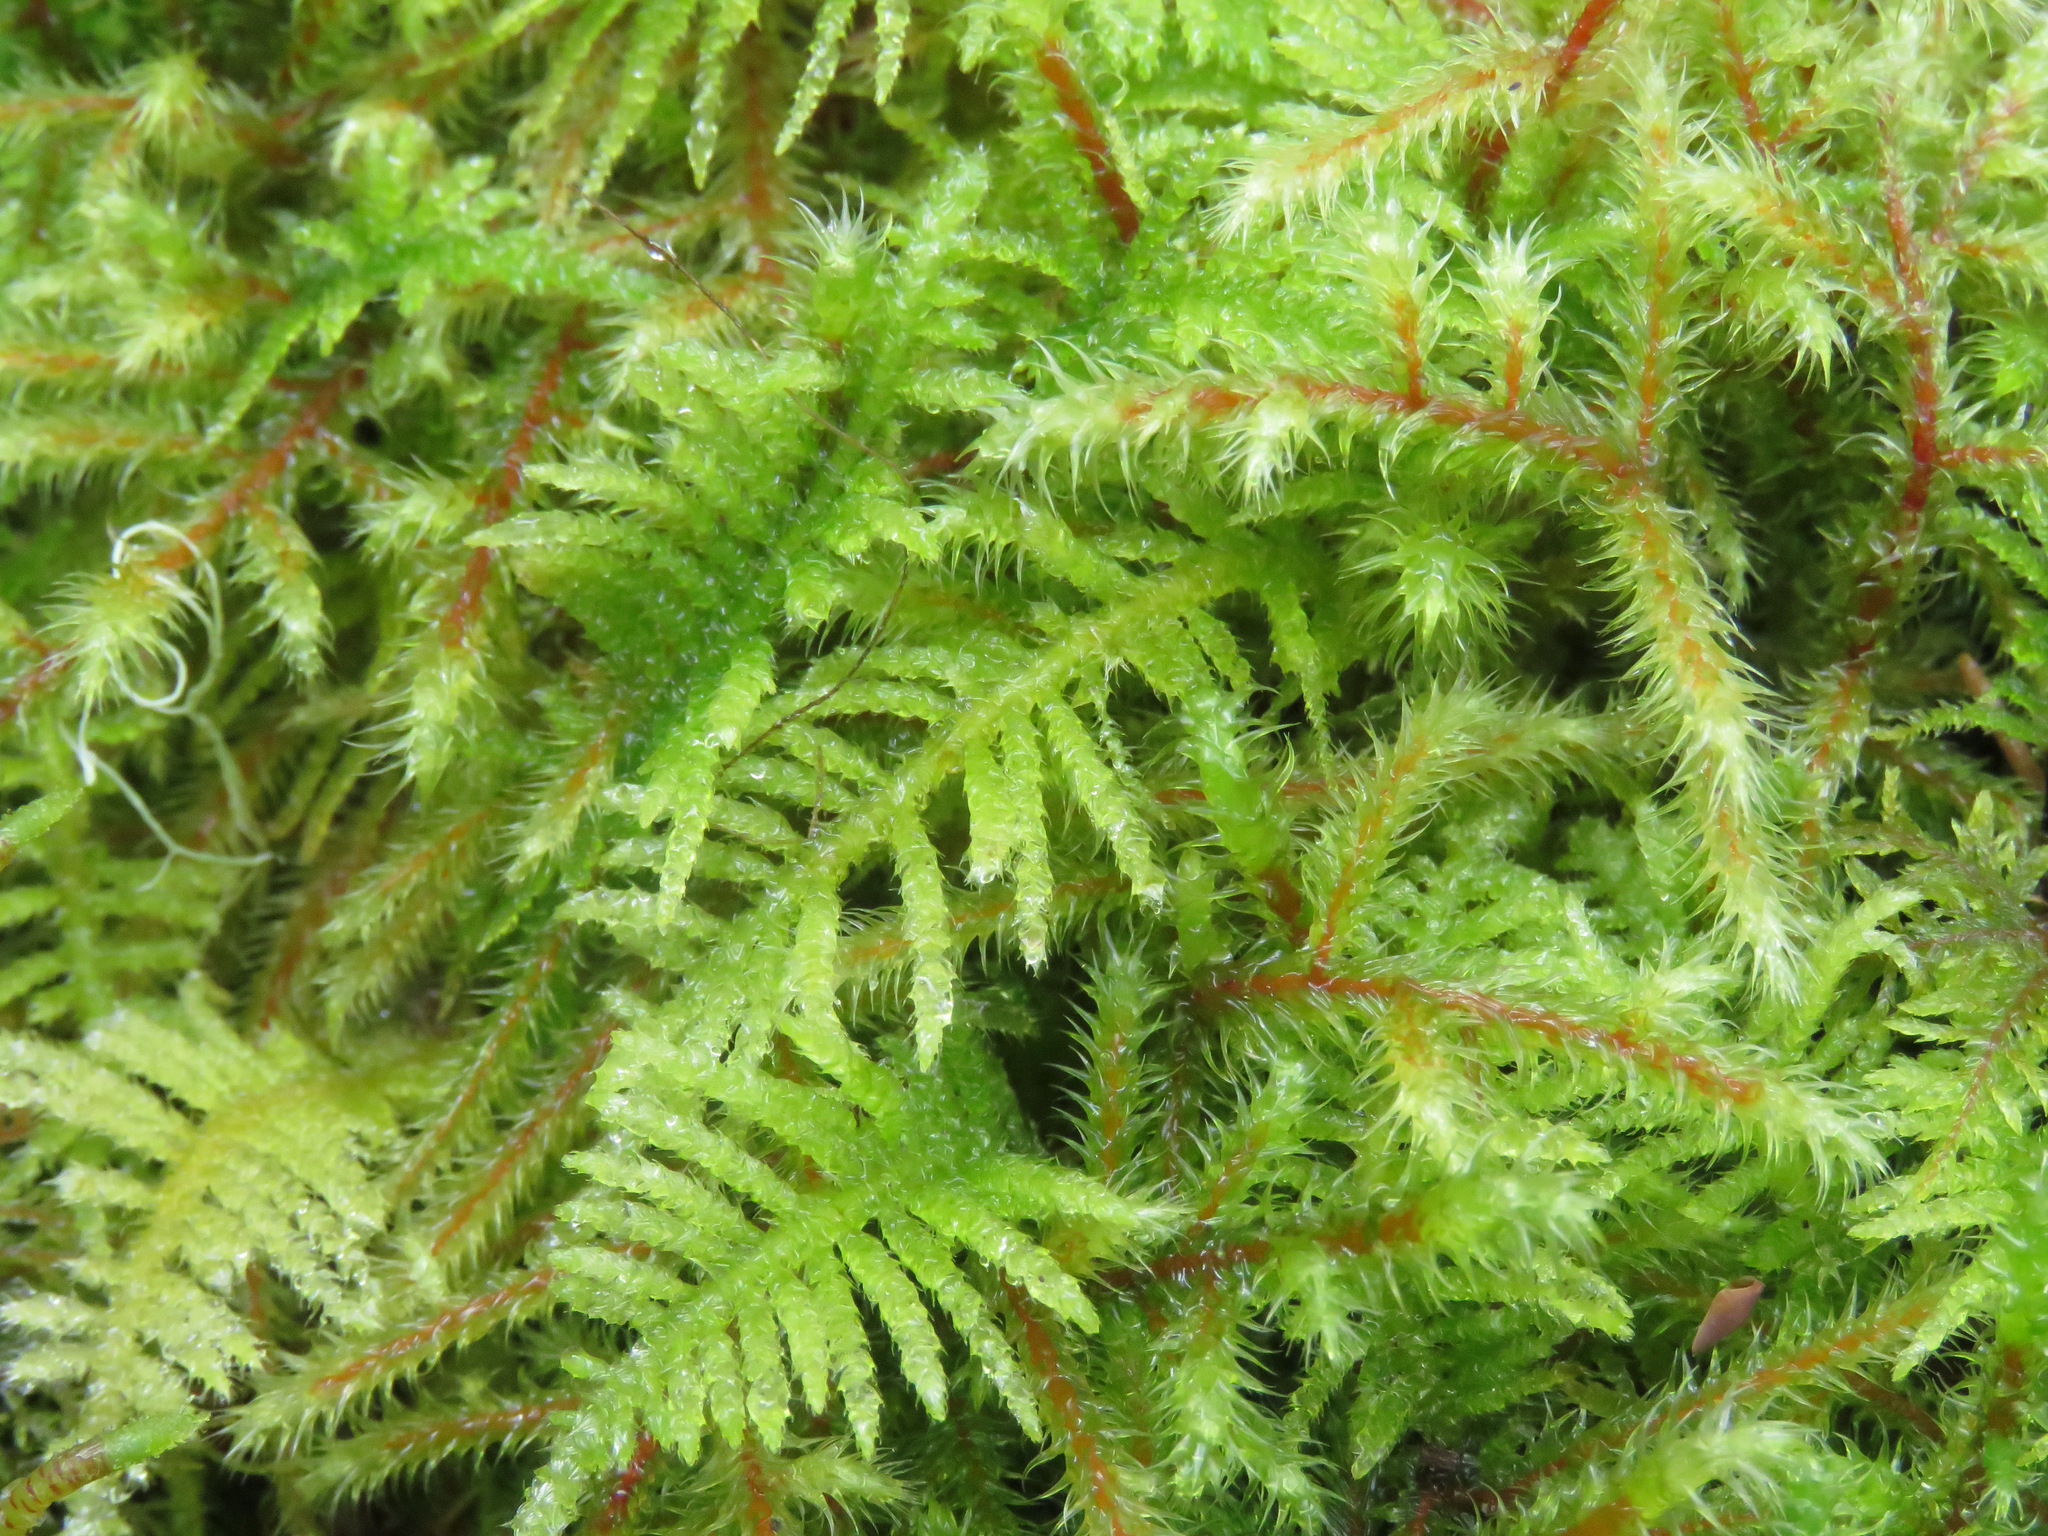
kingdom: Plantae
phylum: Bryophyta
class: Bryopsida
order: Hypnales
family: Brachytheciaceae
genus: Kindbergia
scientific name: Kindbergia oregana
